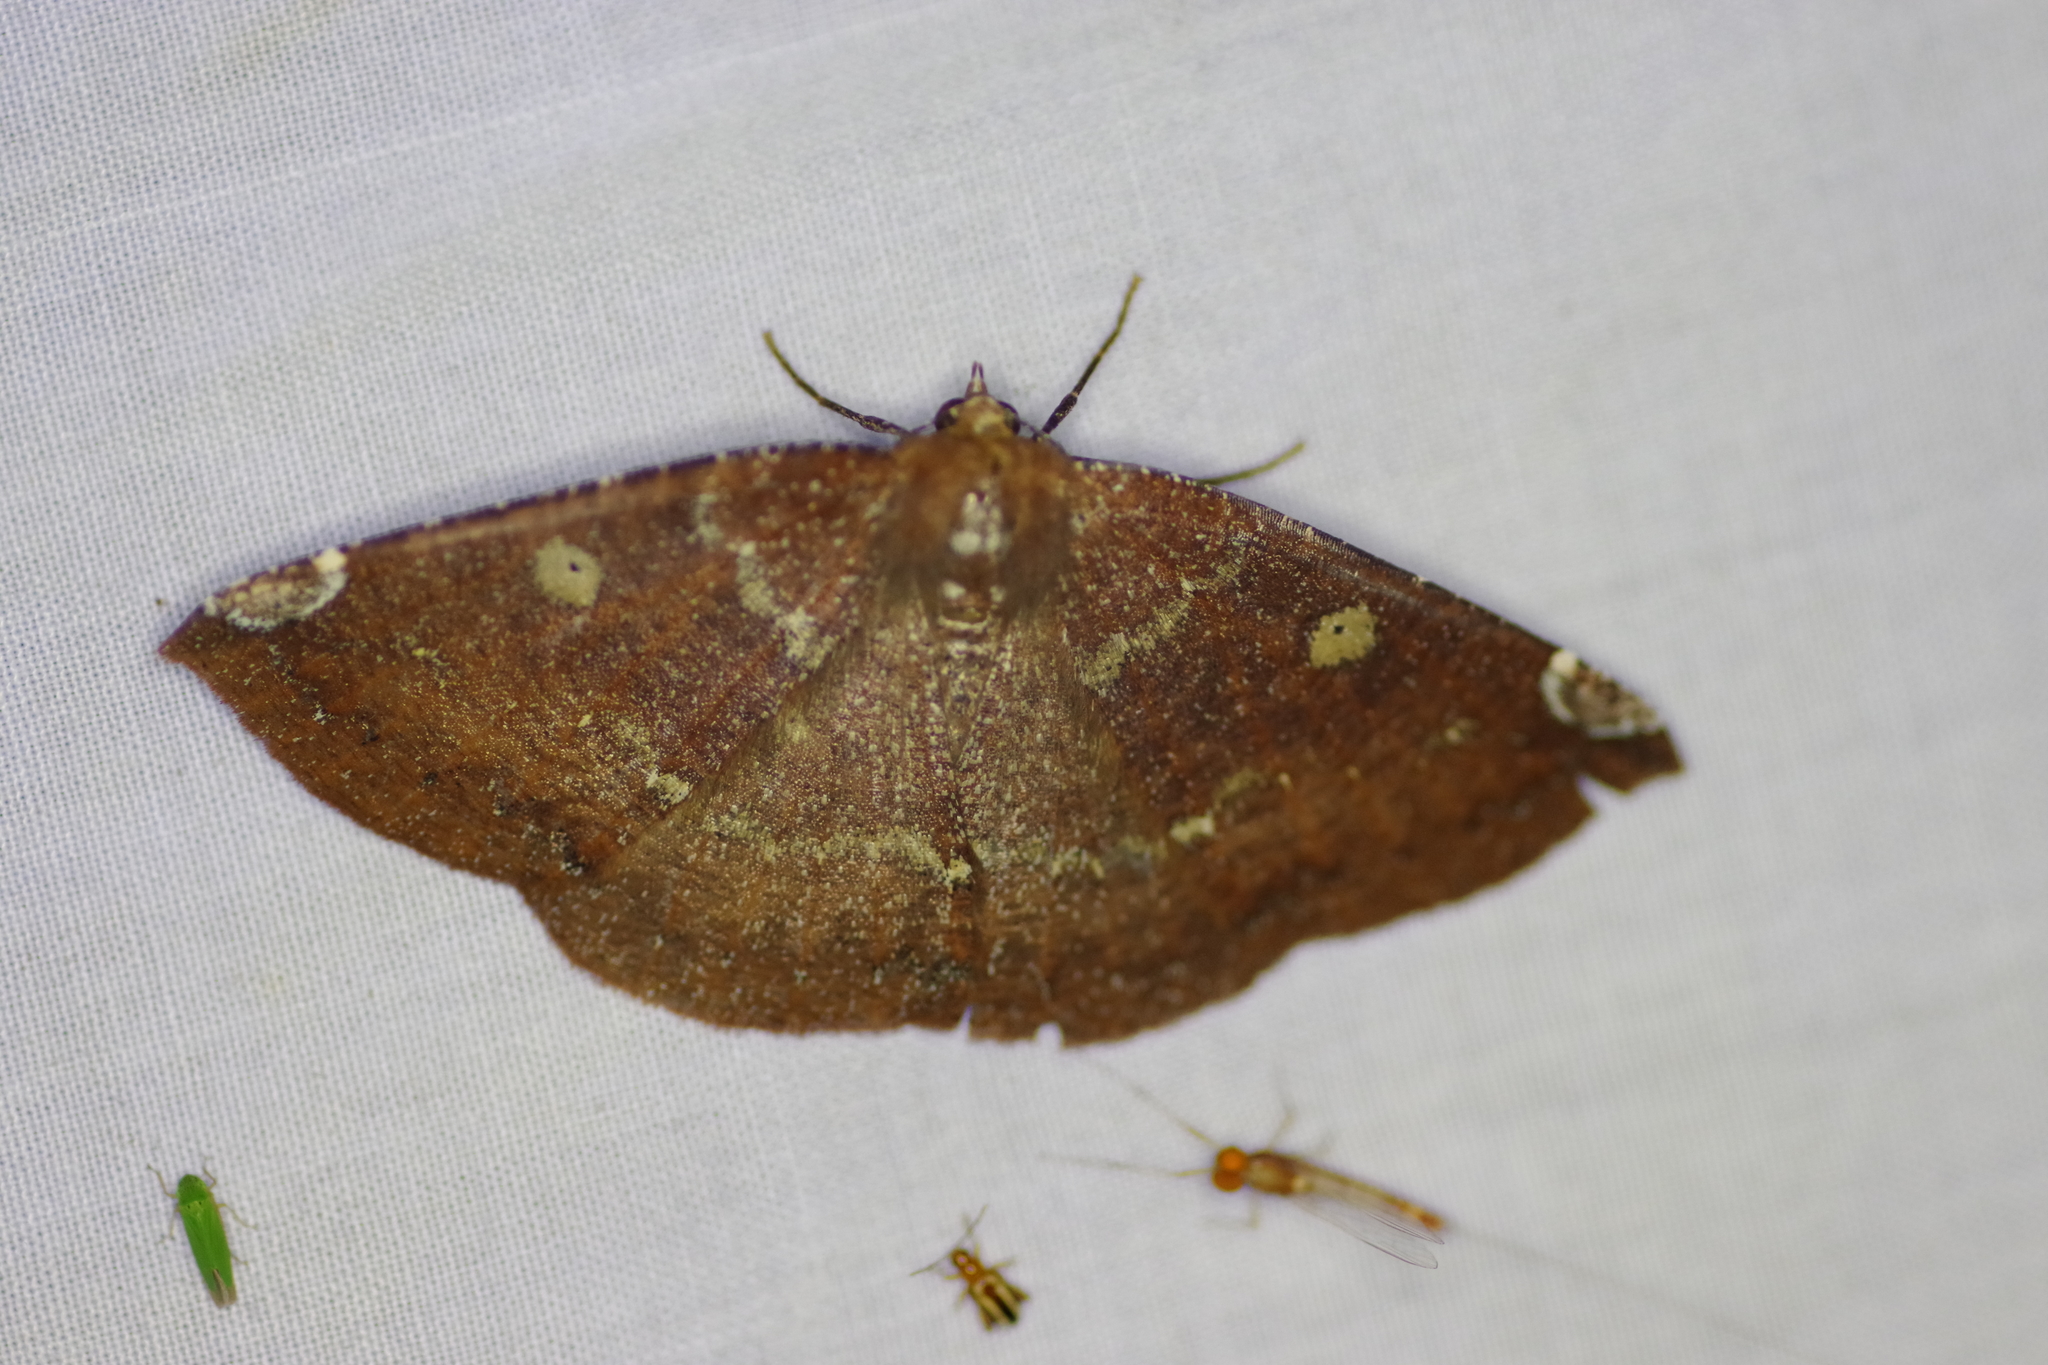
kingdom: Animalia
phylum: Arthropoda
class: Insecta
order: Lepidoptera
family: Geometridae
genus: Herbita
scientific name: Herbita amicaria
